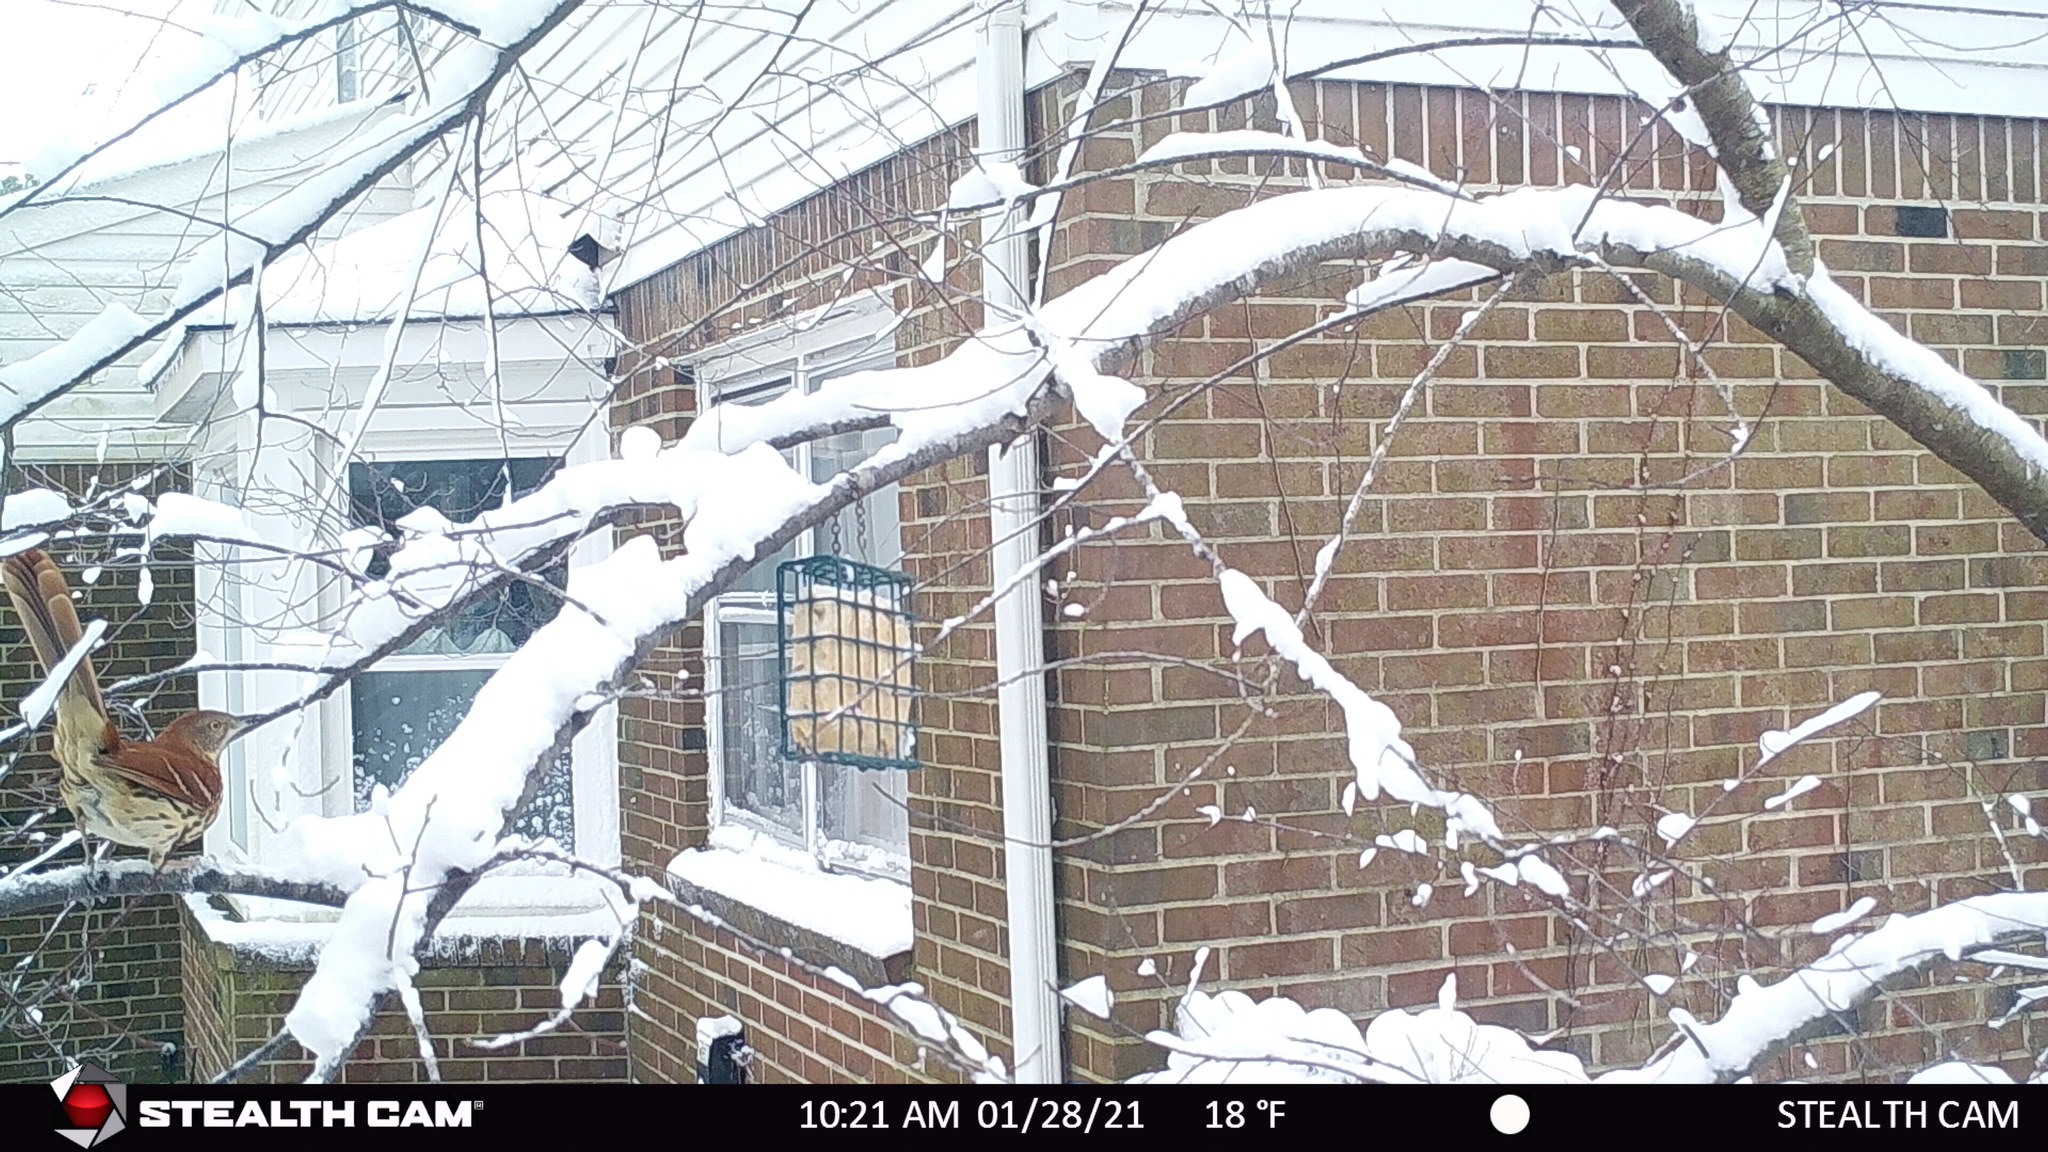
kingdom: Animalia
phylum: Chordata
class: Aves
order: Passeriformes
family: Mimidae
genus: Toxostoma
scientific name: Toxostoma rufum
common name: Brown thrasher
